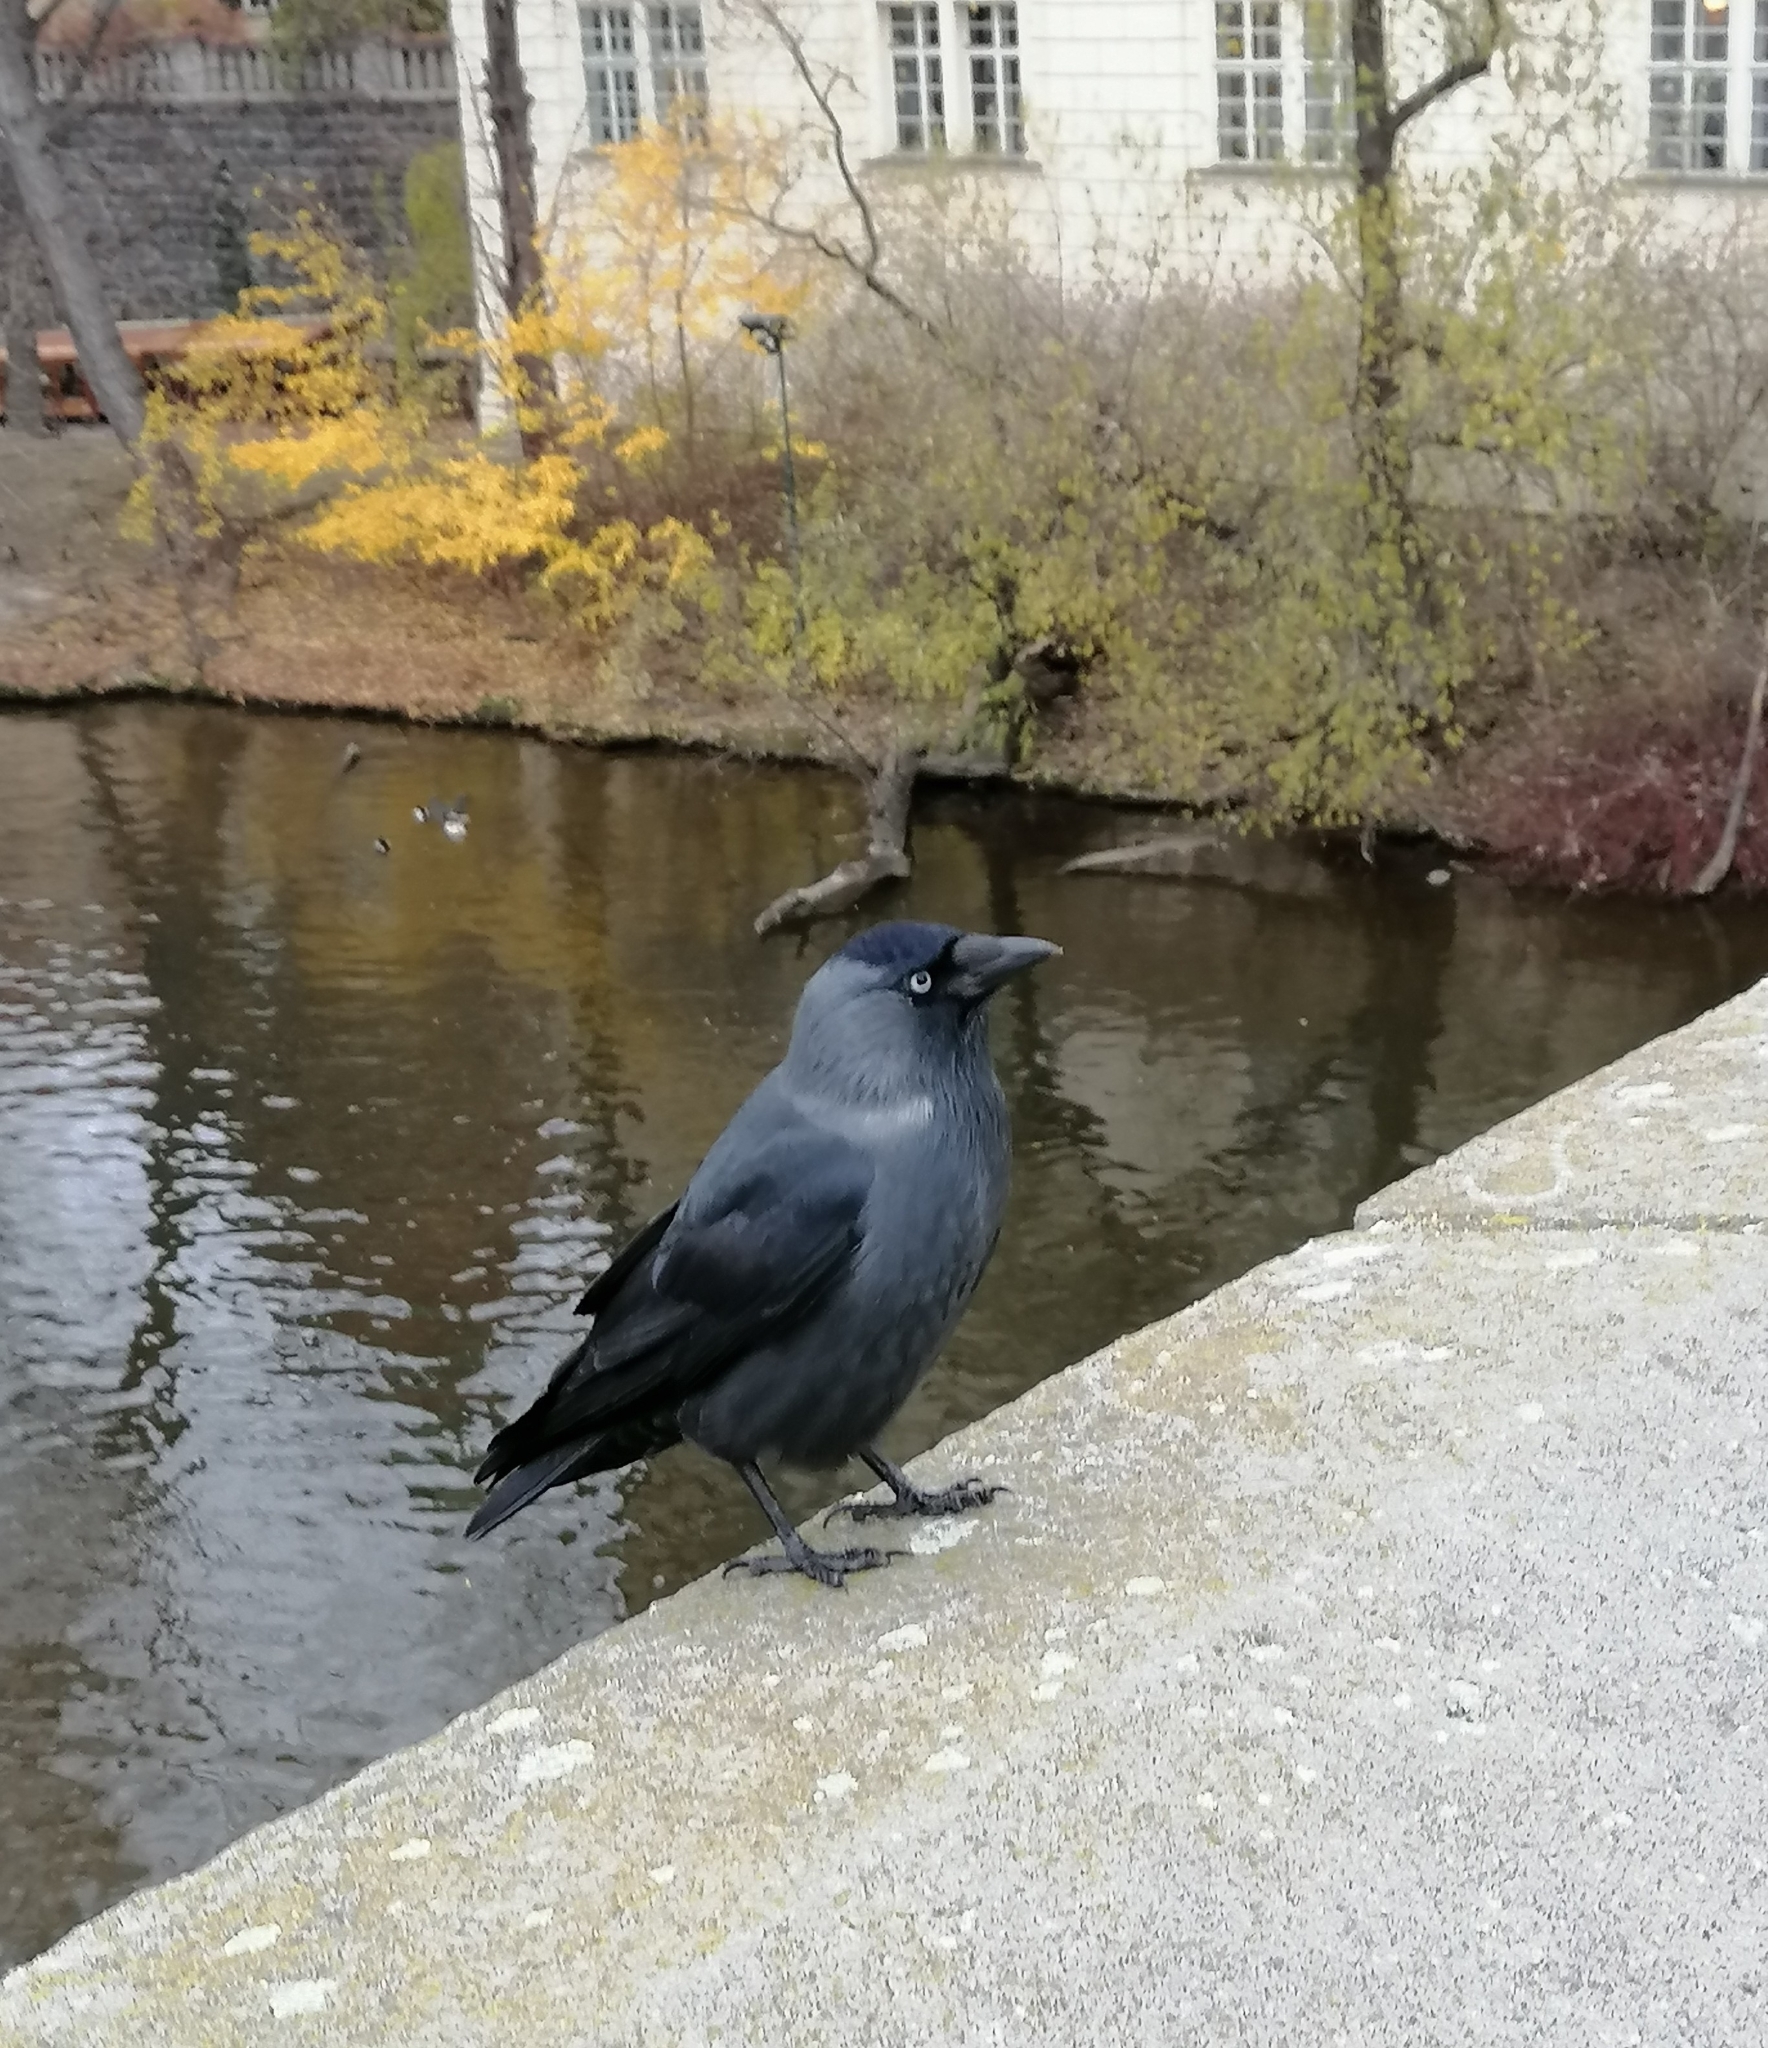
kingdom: Animalia
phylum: Chordata
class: Aves
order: Passeriformes
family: Corvidae
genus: Coloeus
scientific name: Coloeus monedula
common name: Western jackdaw
